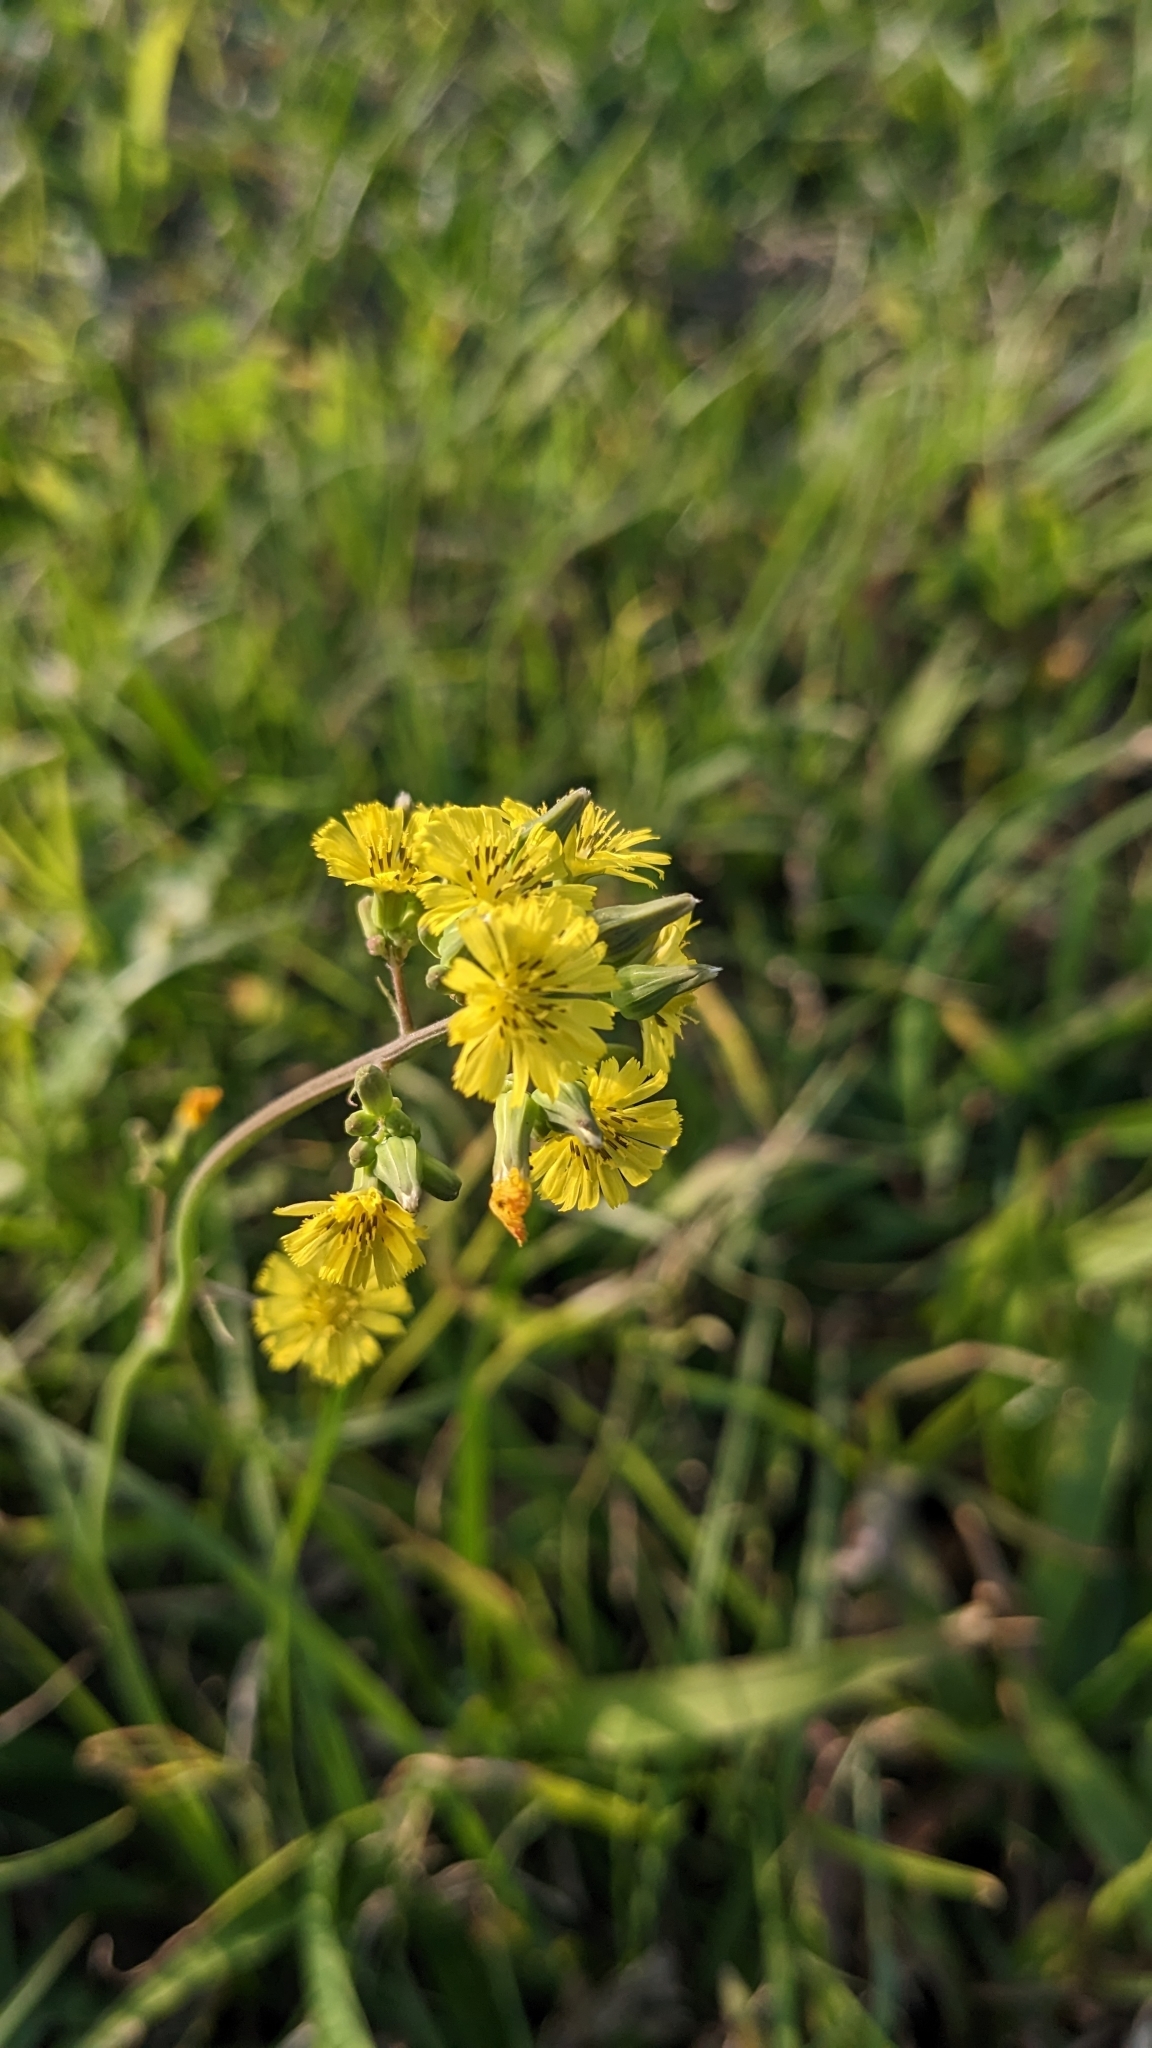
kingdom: Plantae
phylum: Tracheophyta
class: Magnoliopsida
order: Asterales
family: Asteraceae
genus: Youngia
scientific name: Youngia japonica
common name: Oriental false hawksbeard
